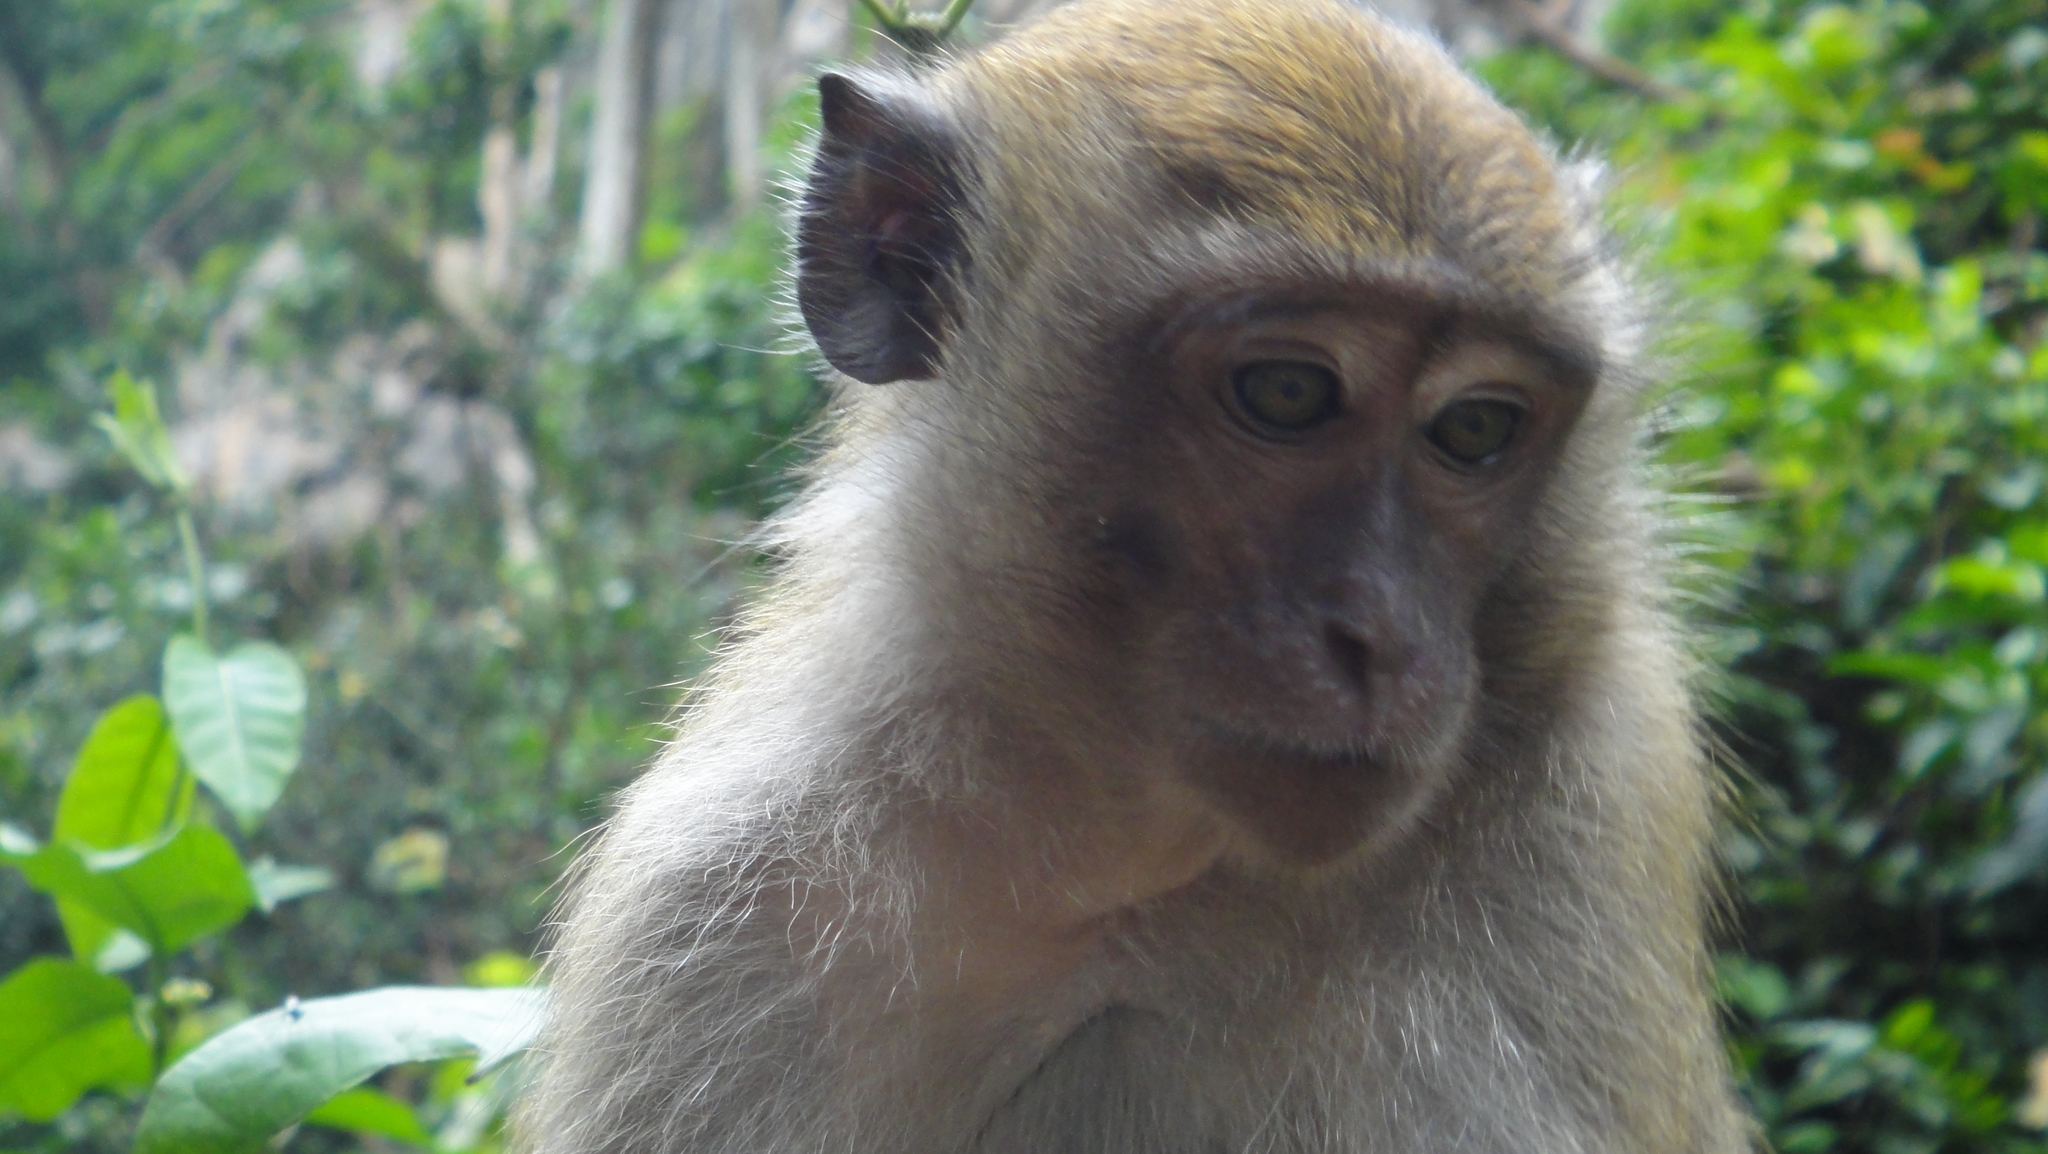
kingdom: Animalia
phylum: Chordata
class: Mammalia
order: Primates
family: Cercopithecidae
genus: Macaca
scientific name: Macaca fascicularis
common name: Crab-eating macaque
